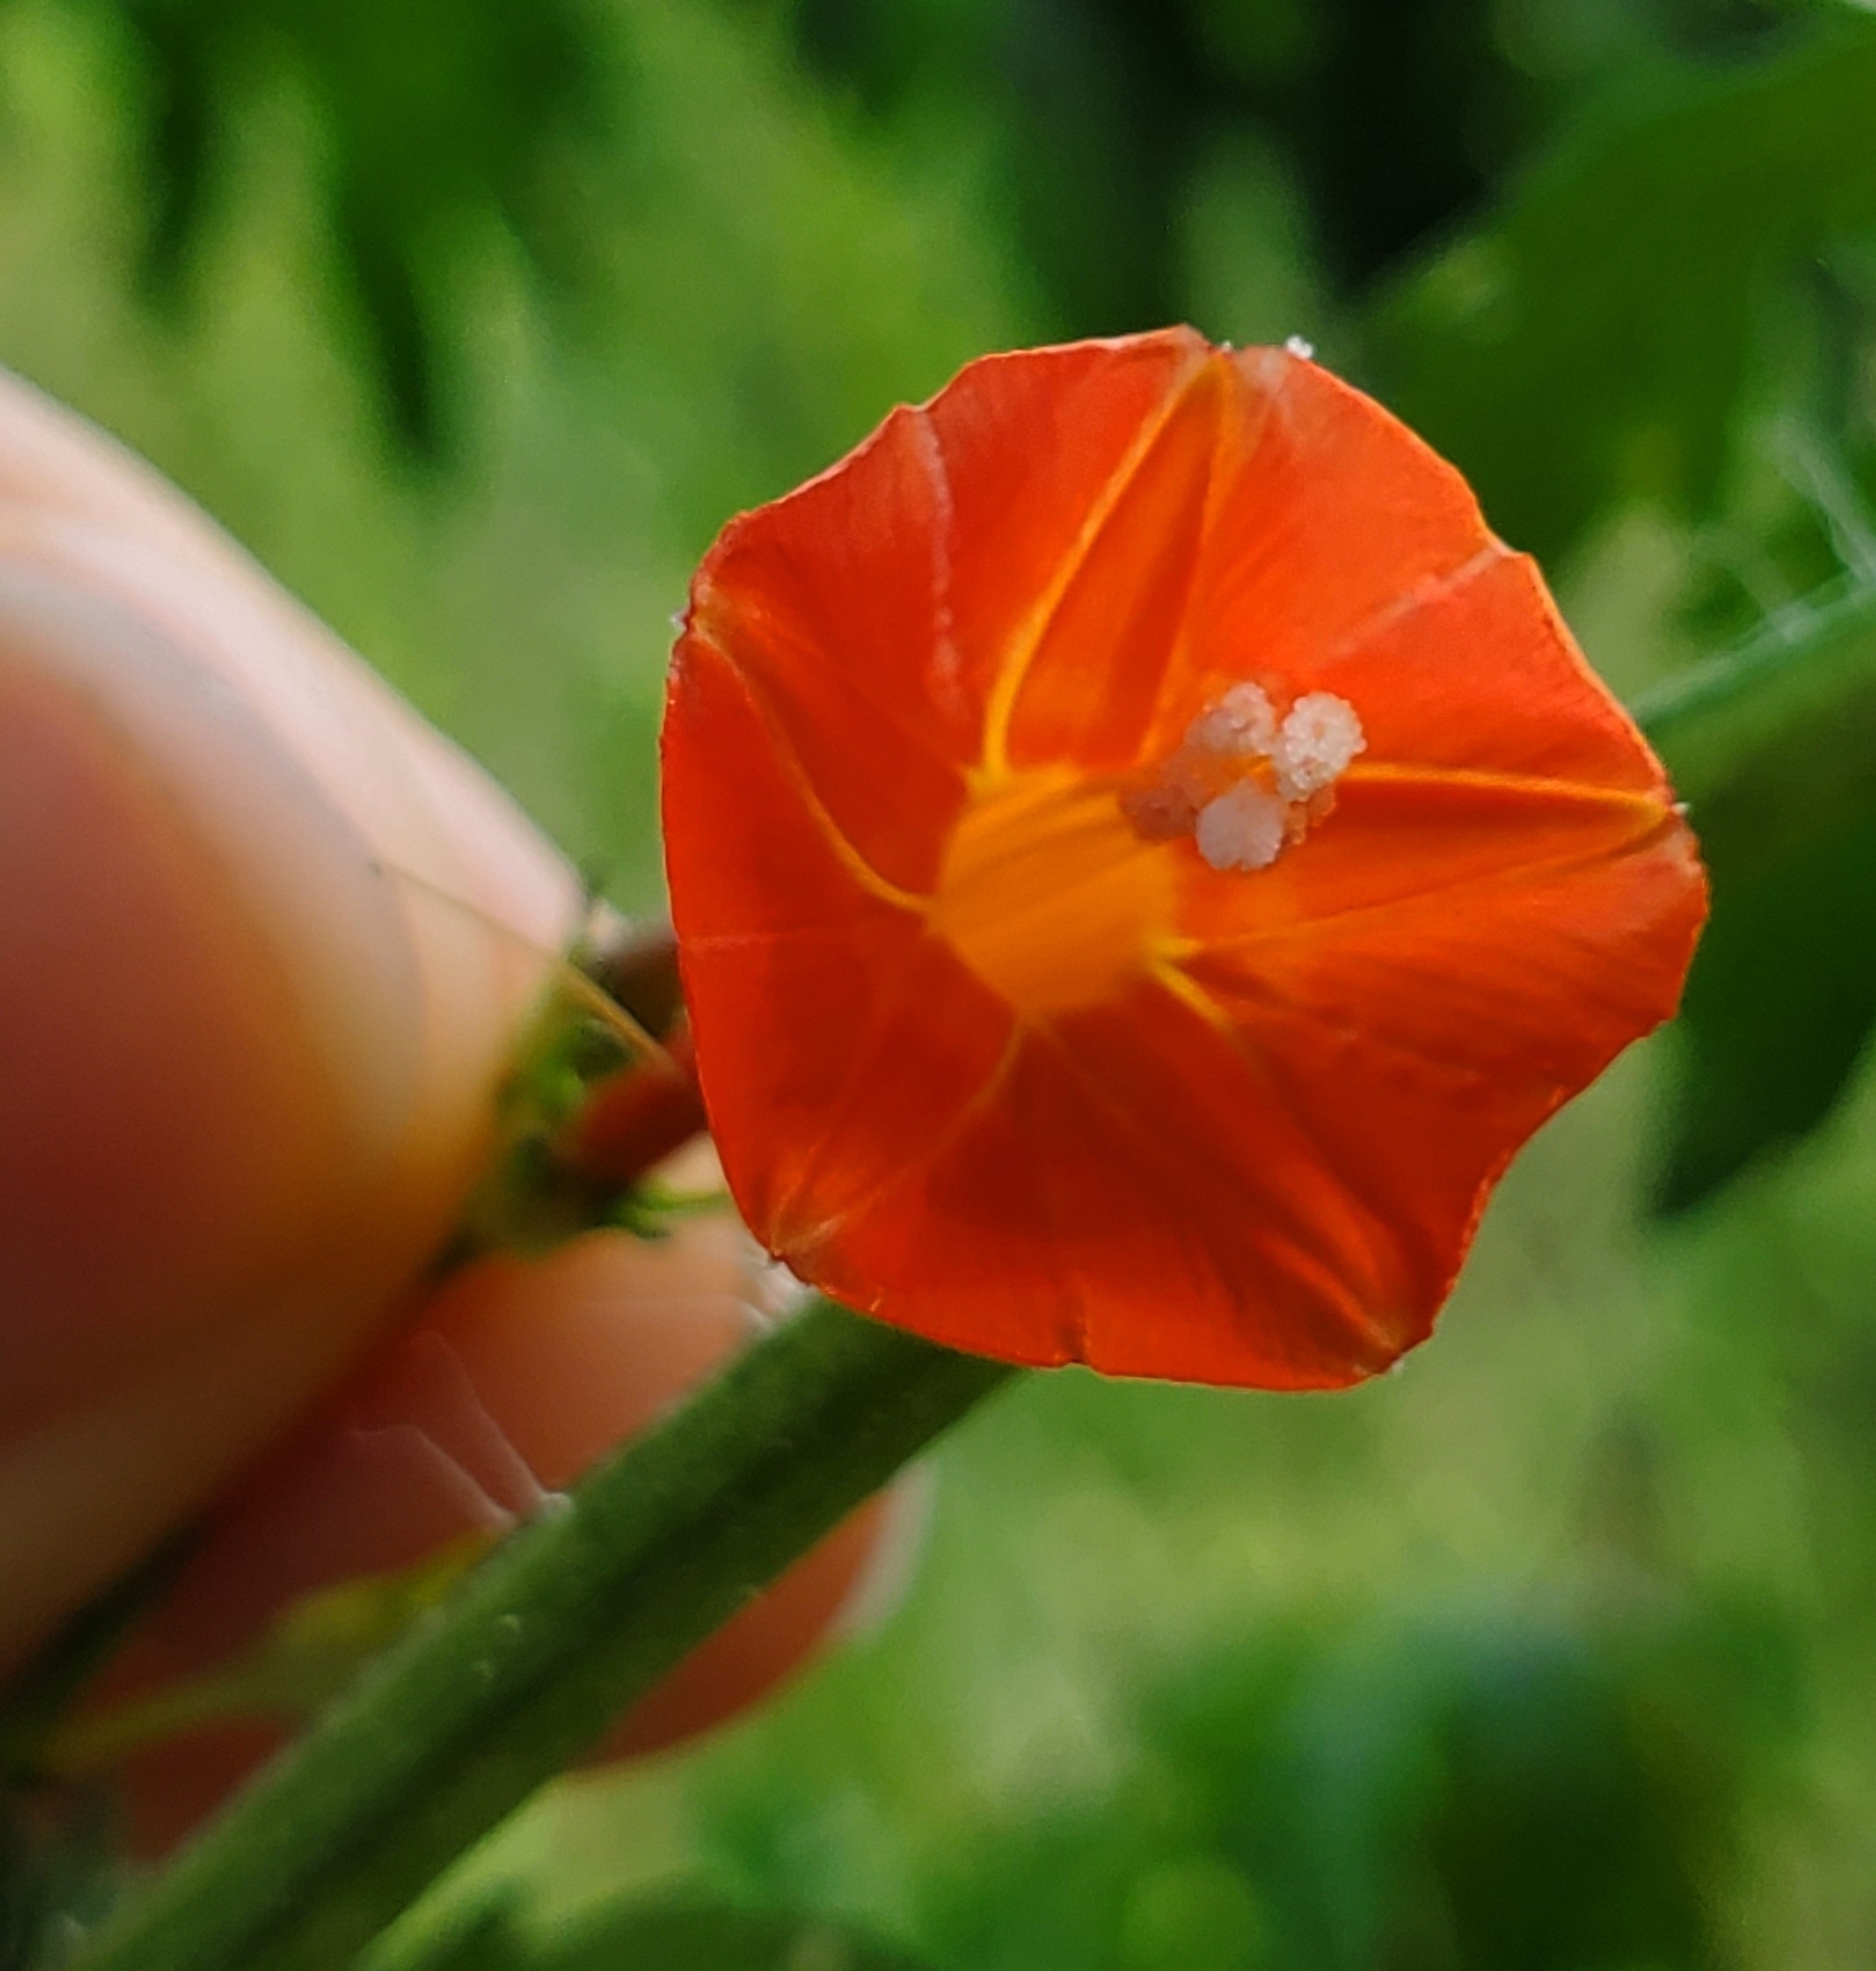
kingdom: Plantae
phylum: Tracheophyta
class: Magnoliopsida
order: Solanales
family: Convolvulaceae
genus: Ipomoea
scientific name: Ipomoea hederifolia
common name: Ivy-leaf morning-glory
